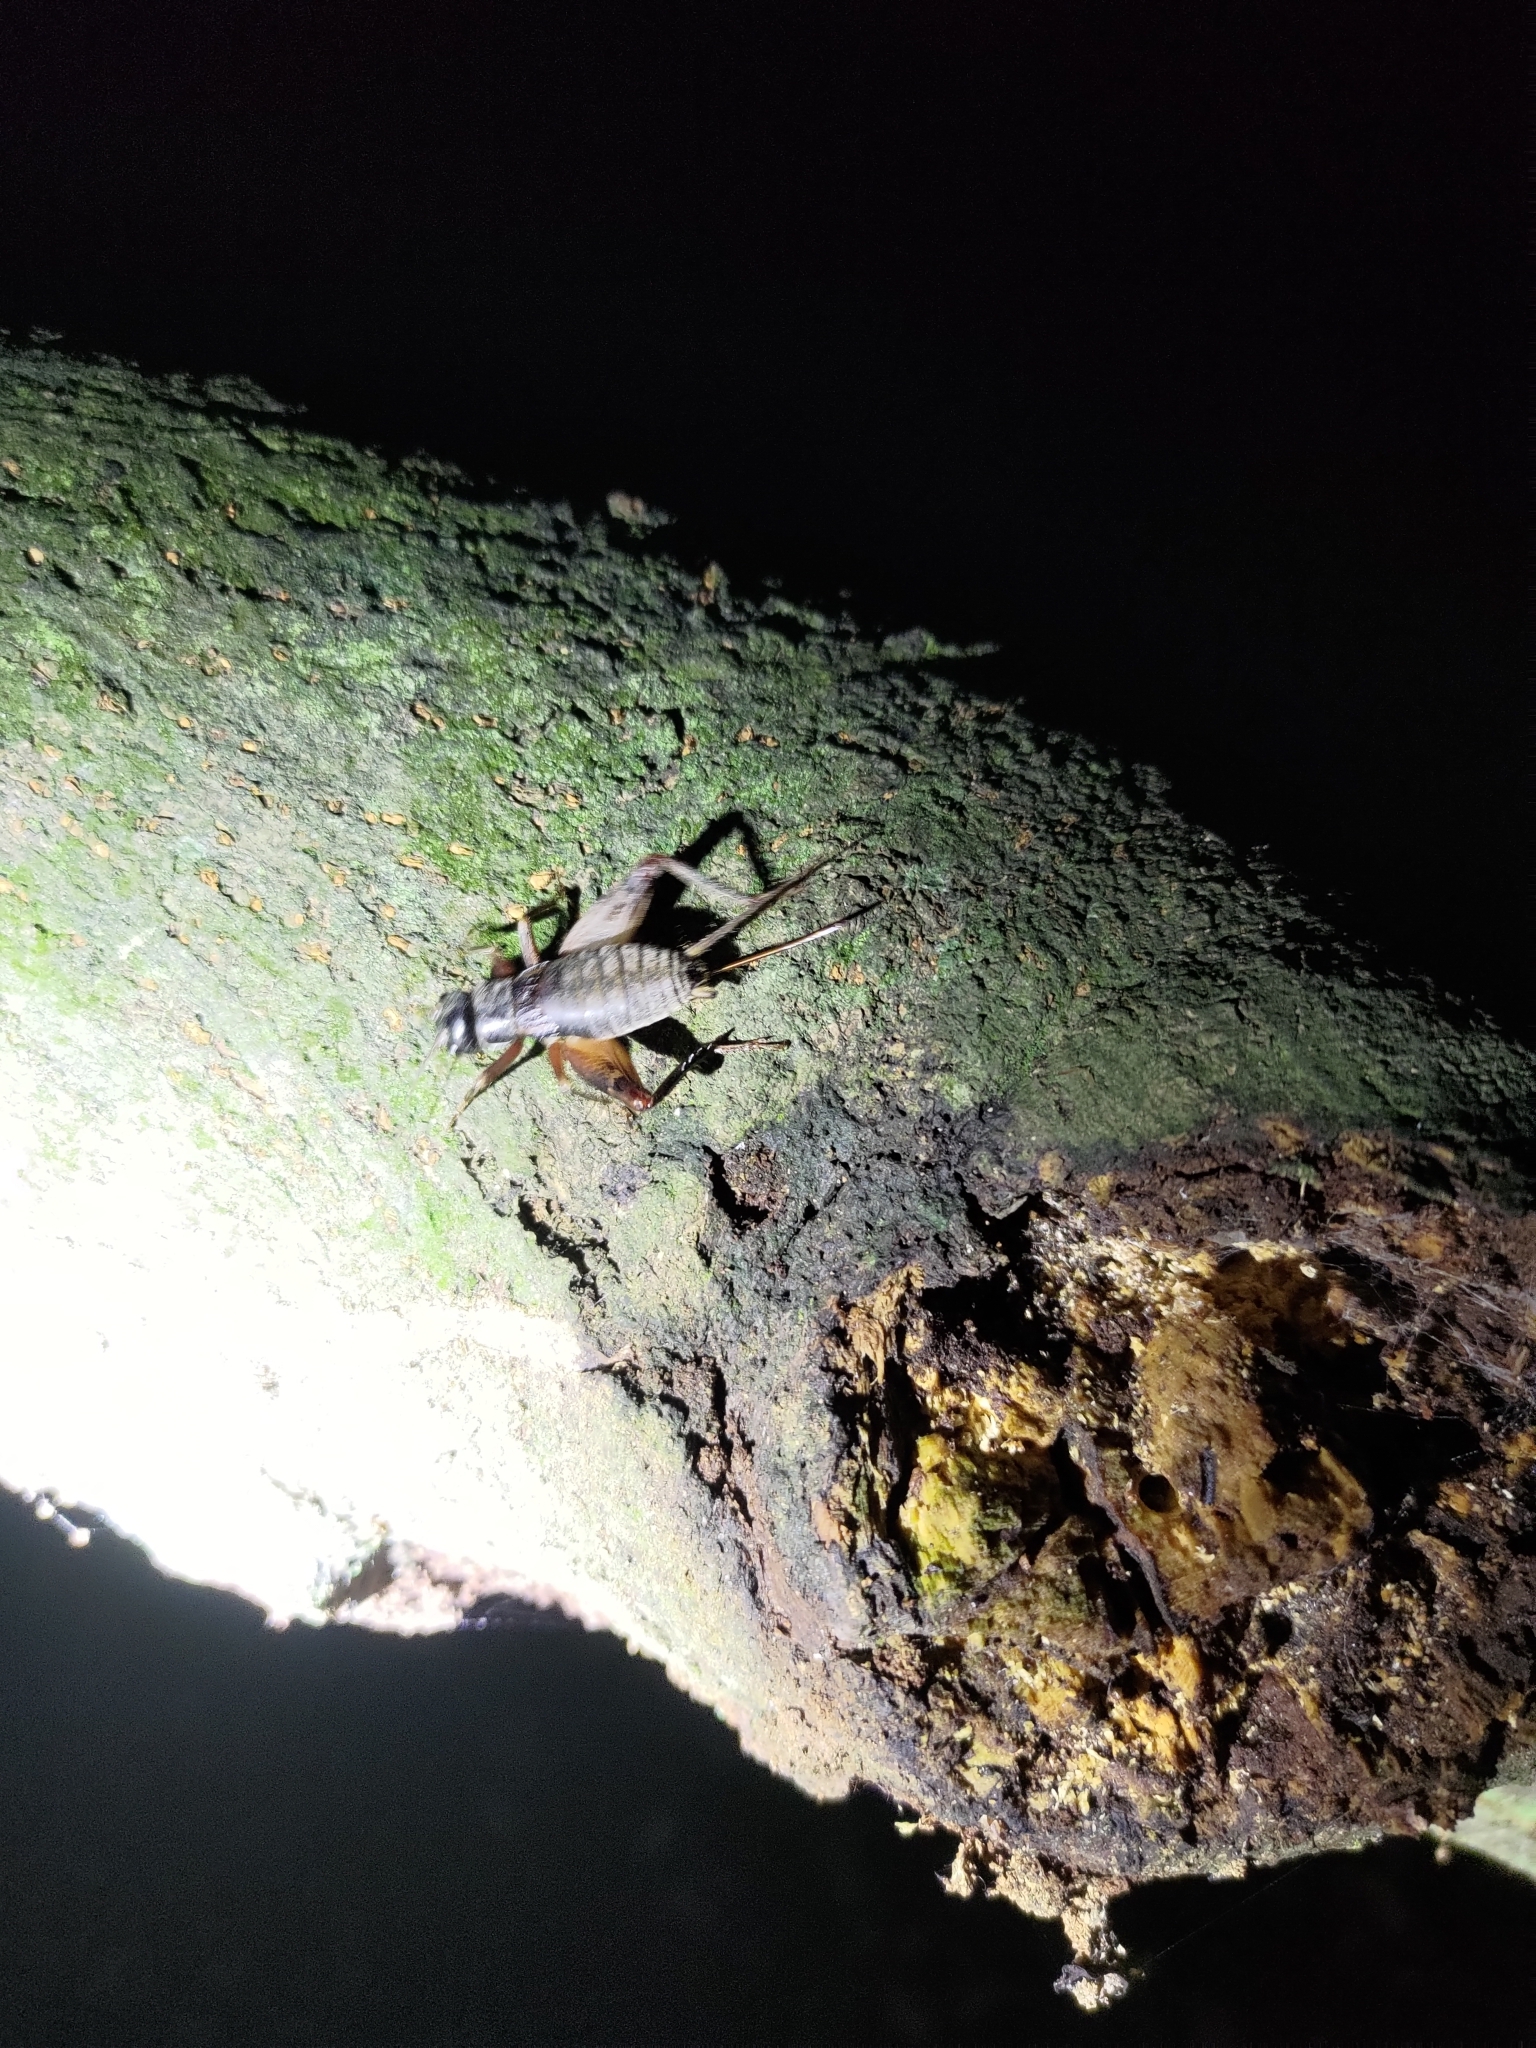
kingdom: Animalia
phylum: Arthropoda
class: Insecta
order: Orthoptera
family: Gryllidae
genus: Duolandrevus
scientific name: Duolandrevus coulonianus
